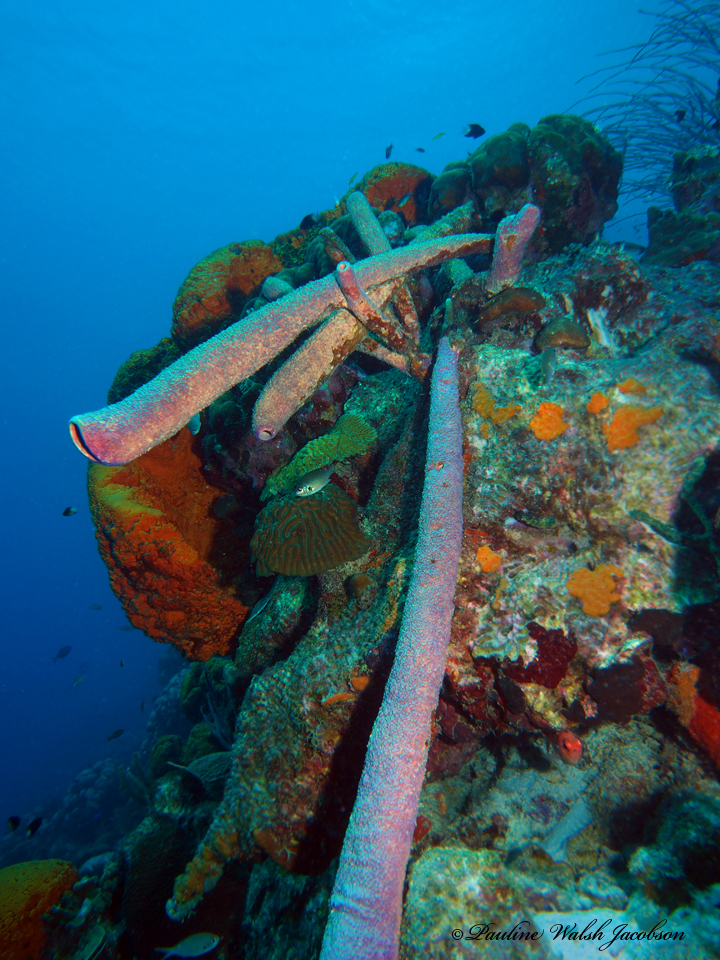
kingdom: Animalia
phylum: Porifera
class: Demospongiae
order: Verongiida
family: Aplysinidae
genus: Aplysina
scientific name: Aplysina archeri
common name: Stove-pipe sponge
